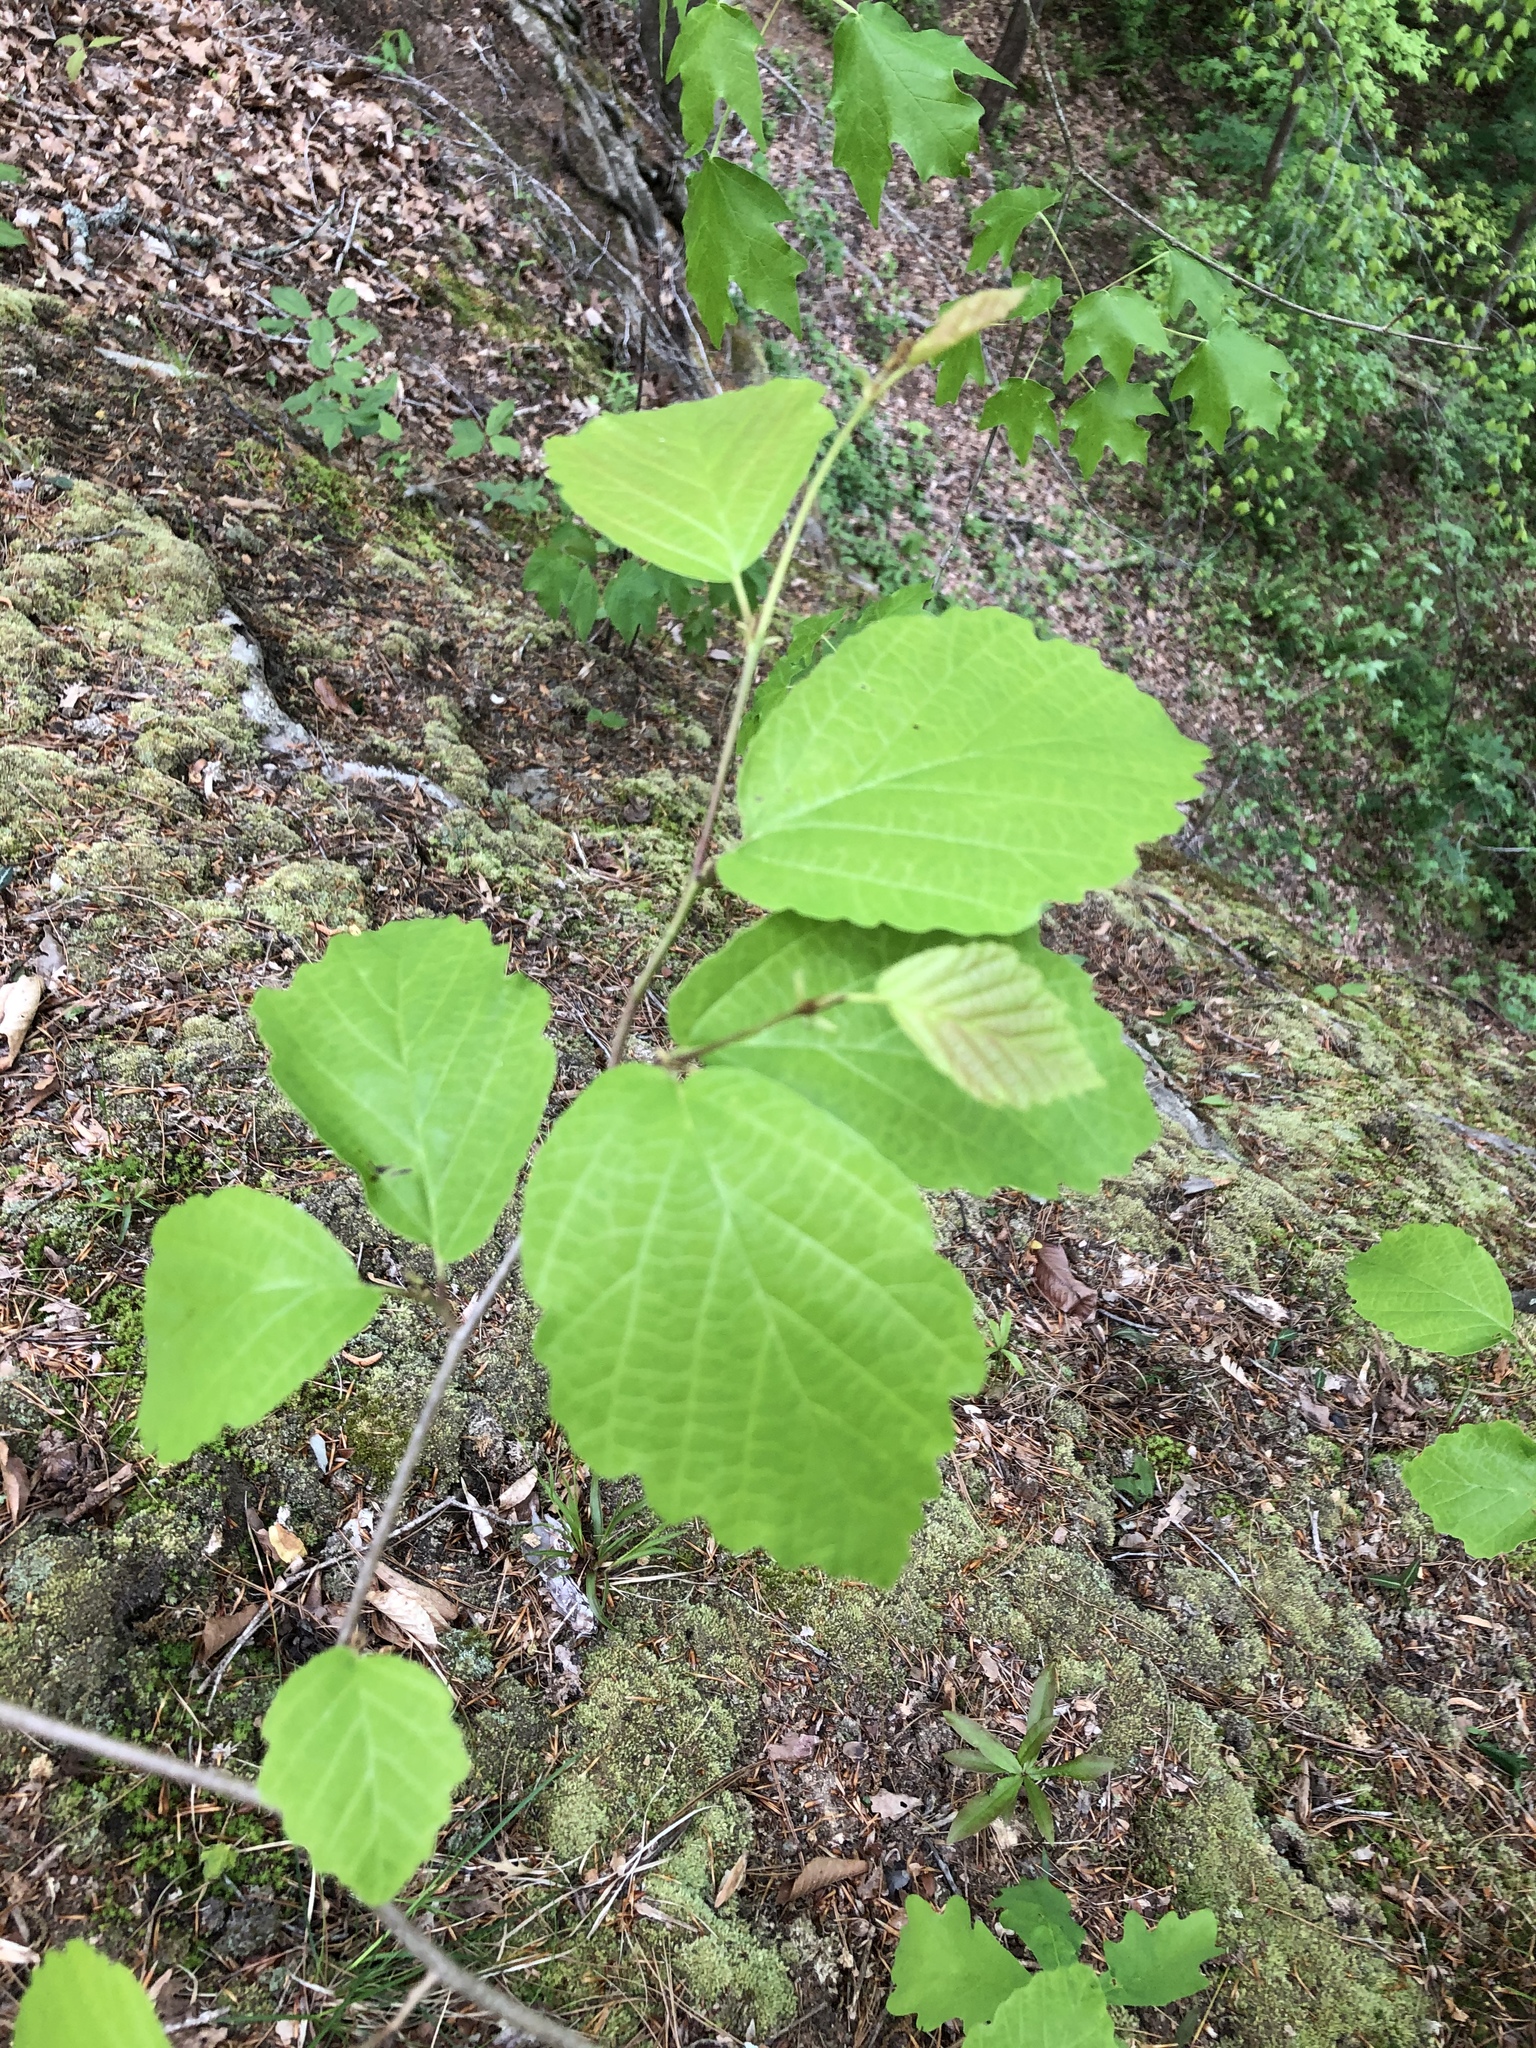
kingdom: Plantae
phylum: Tracheophyta
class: Magnoliopsida
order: Saxifragales
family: Hamamelidaceae
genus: Hamamelis
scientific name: Hamamelis virginiana
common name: Witch-hazel
